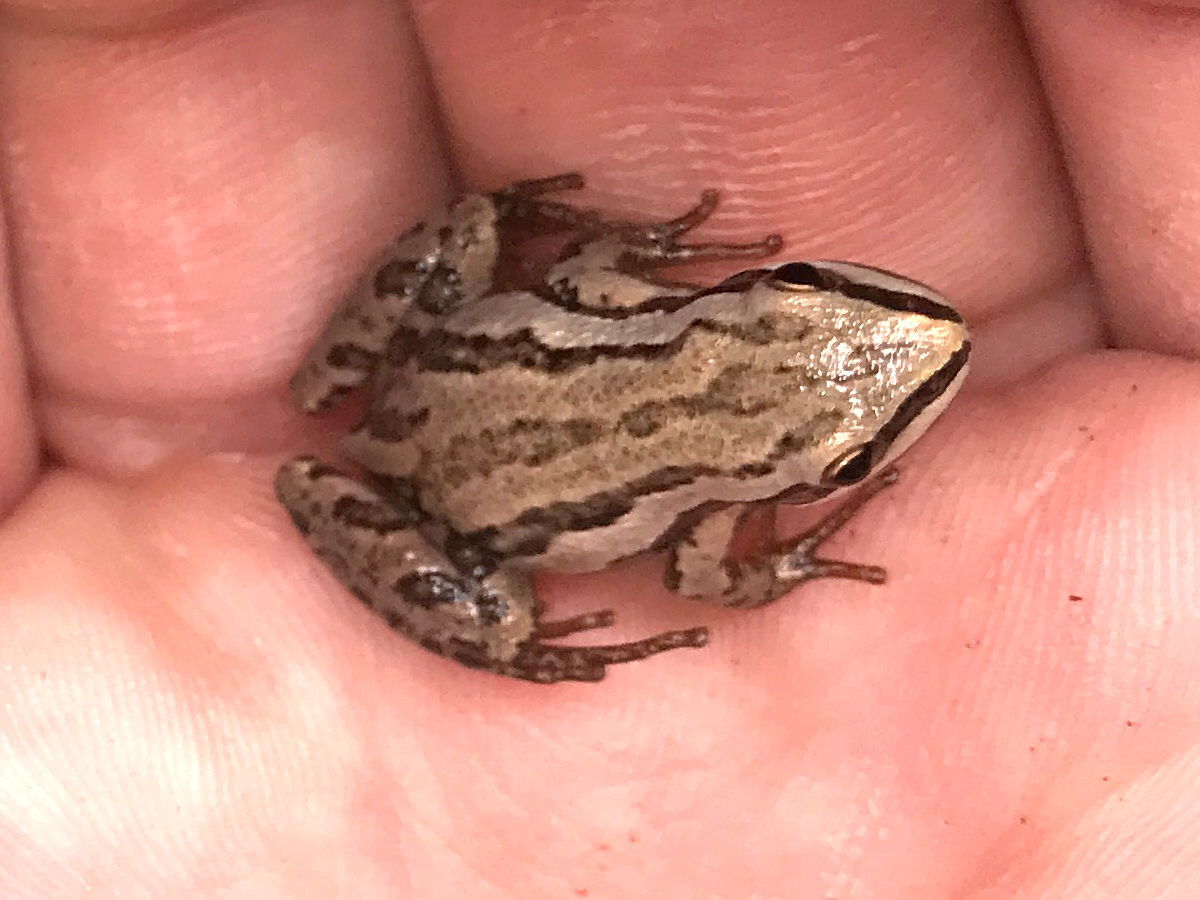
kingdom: Animalia
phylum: Chordata
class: Amphibia
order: Anura
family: Hylidae
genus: Pseudacris
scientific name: Pseudacris maculata
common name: Boreal chorus frog
